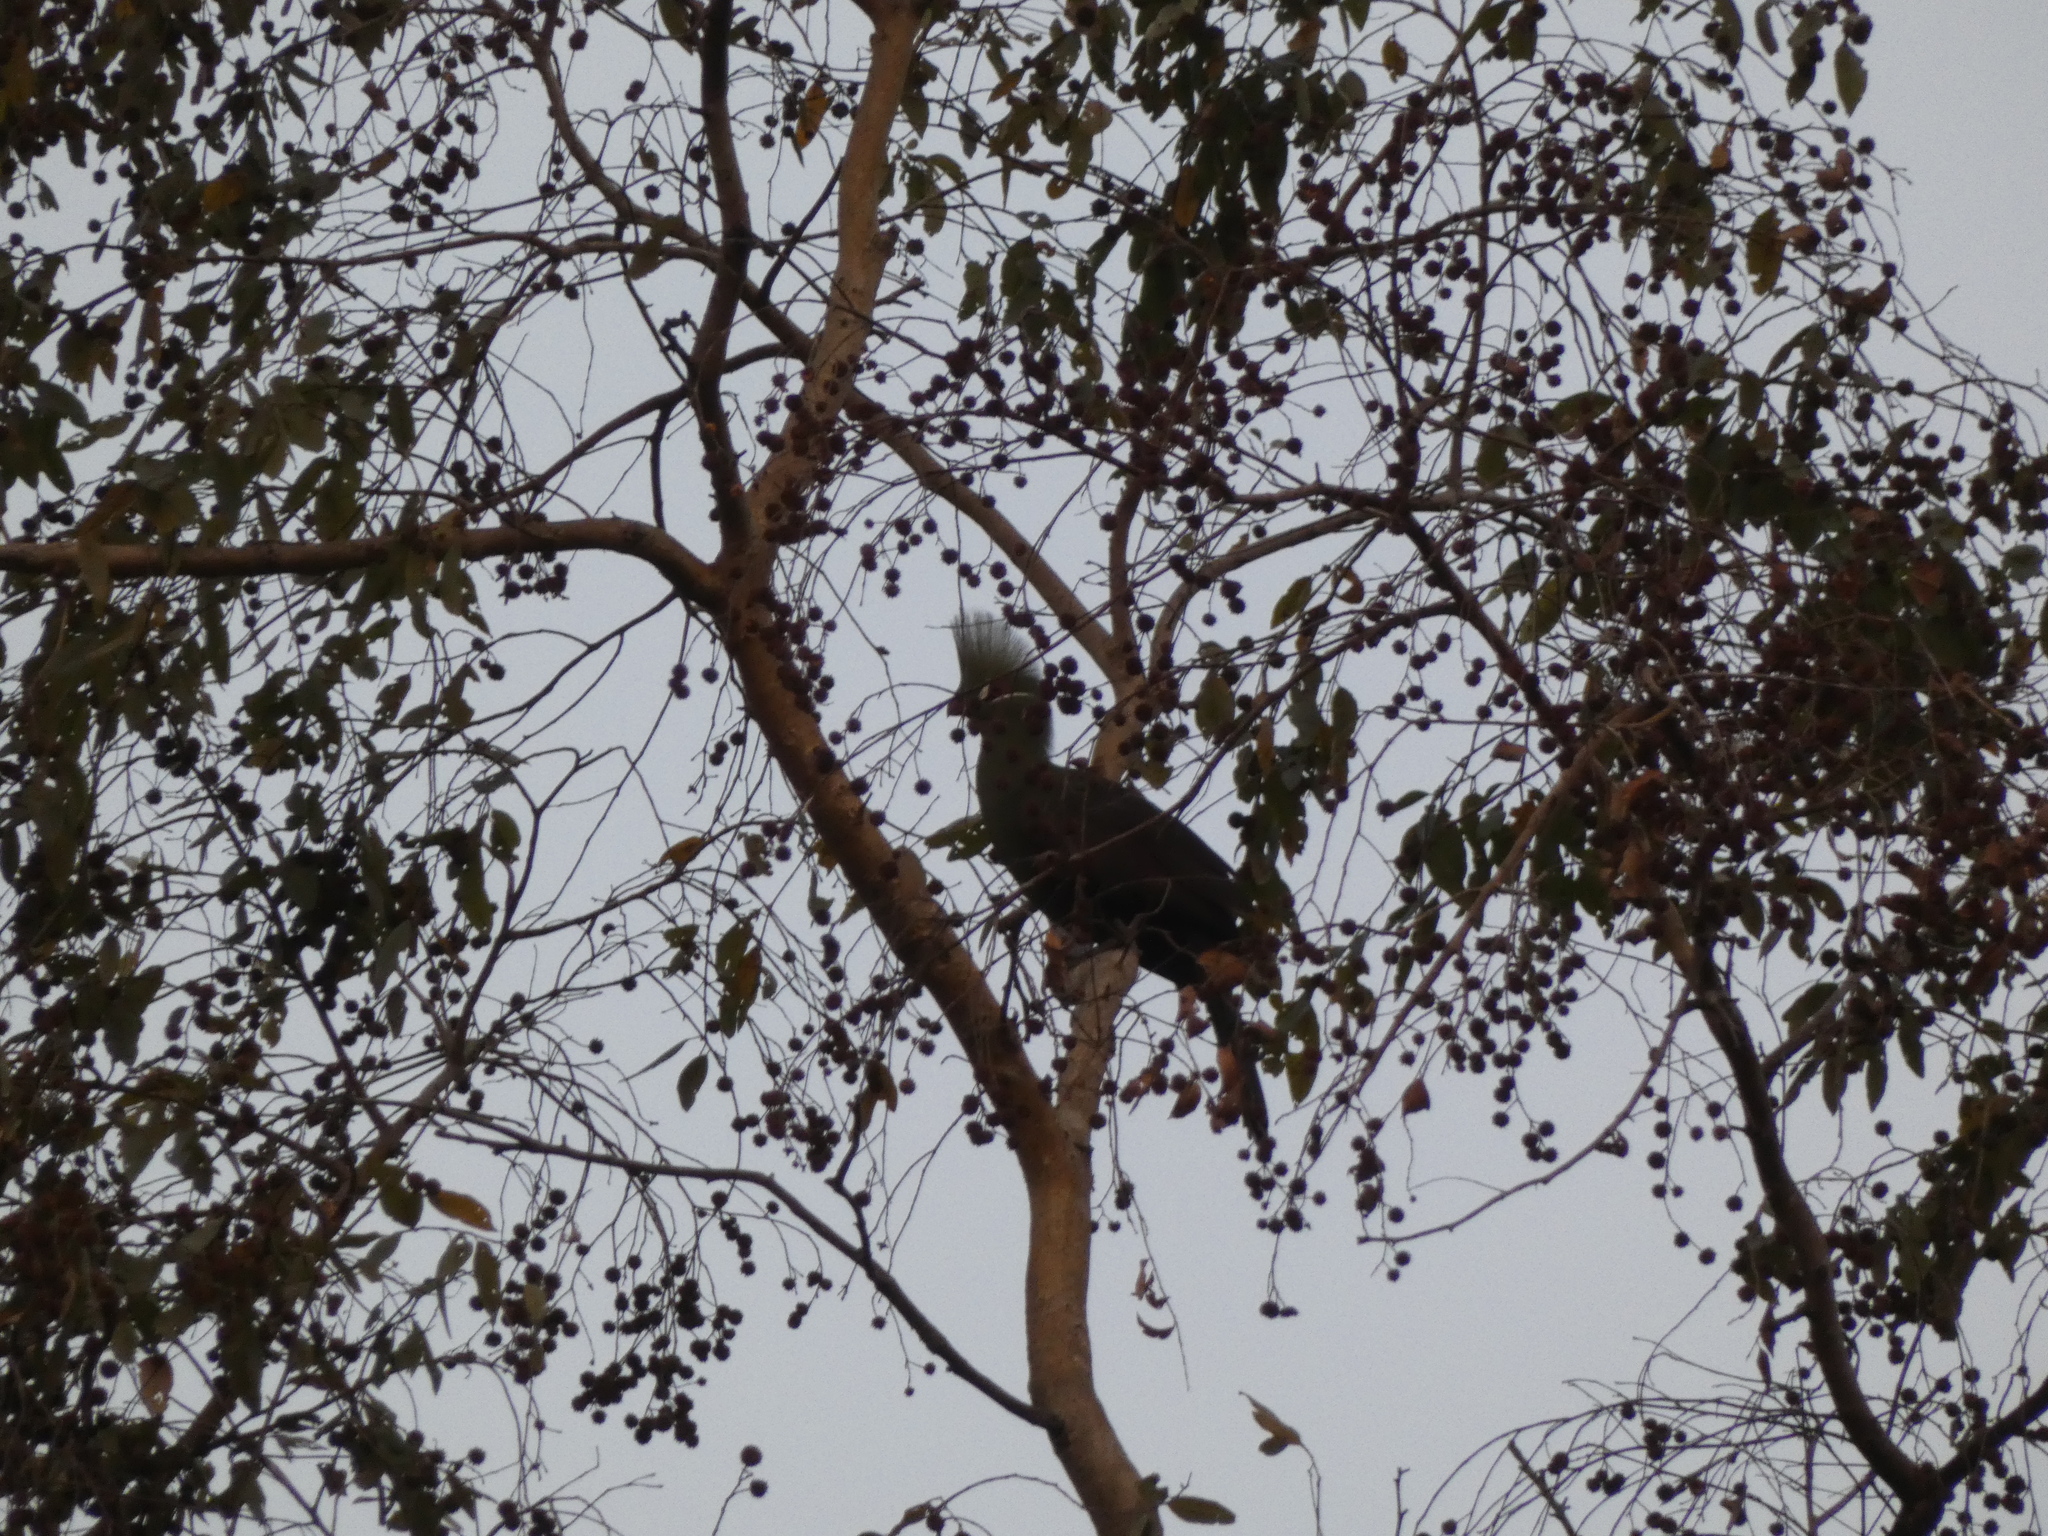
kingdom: Animalia
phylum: Chordata
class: Aves
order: Musophagiformes
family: Musophagidae
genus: Tauraco
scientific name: Tauraco persa
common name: Guinea turaco
